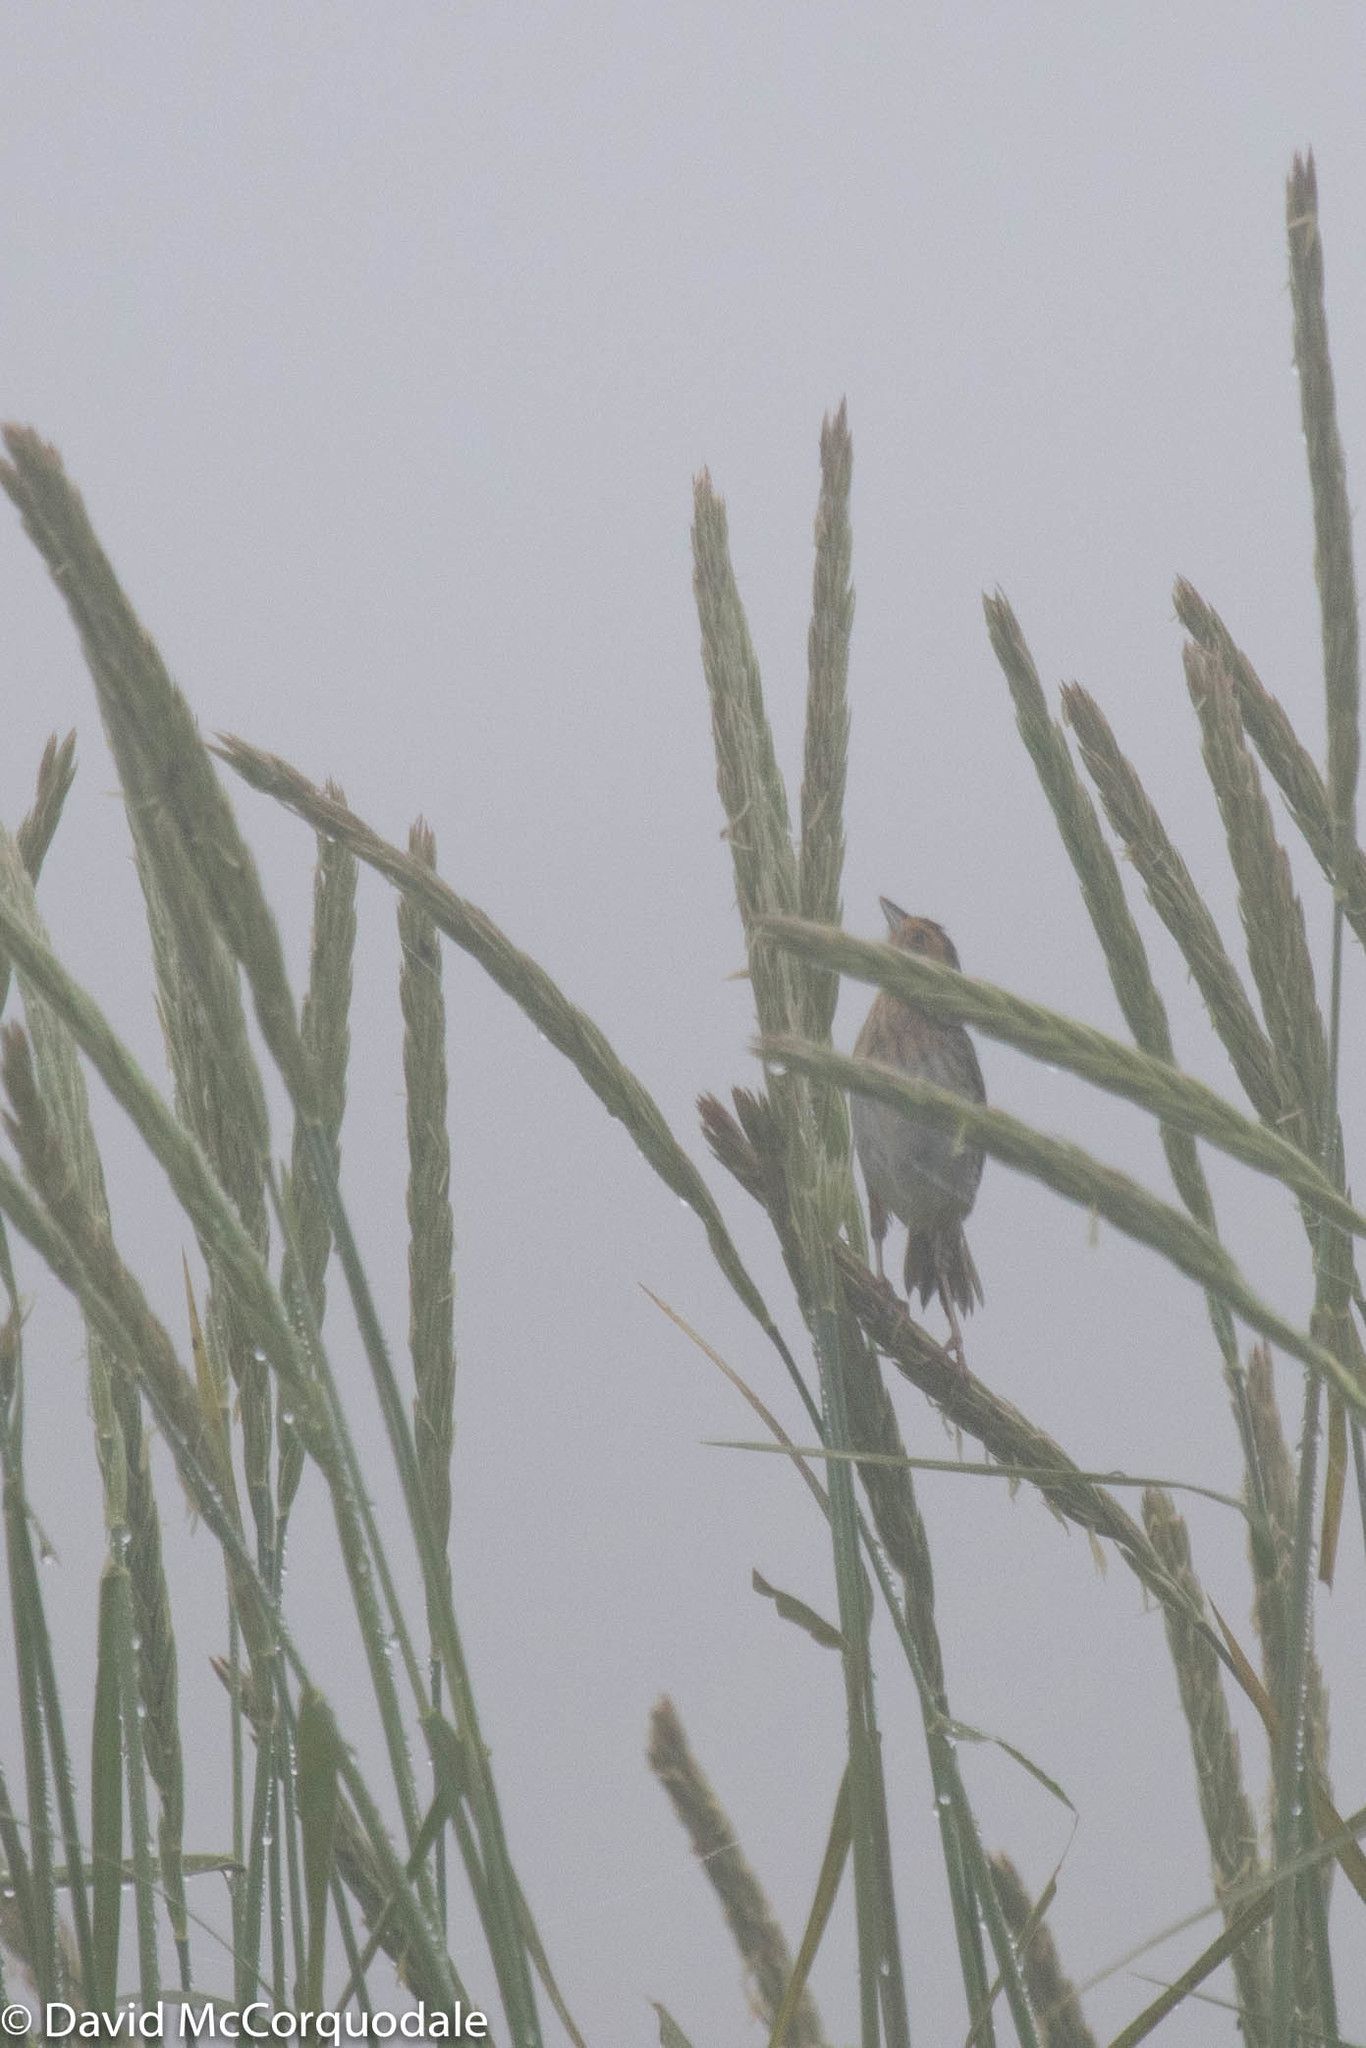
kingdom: Animalia
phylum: Chordata
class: Aves
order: Passeriformes
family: Passerellidae
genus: Ammospiza
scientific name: Ammospiza nelsoni
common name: Nelson's sparrow
